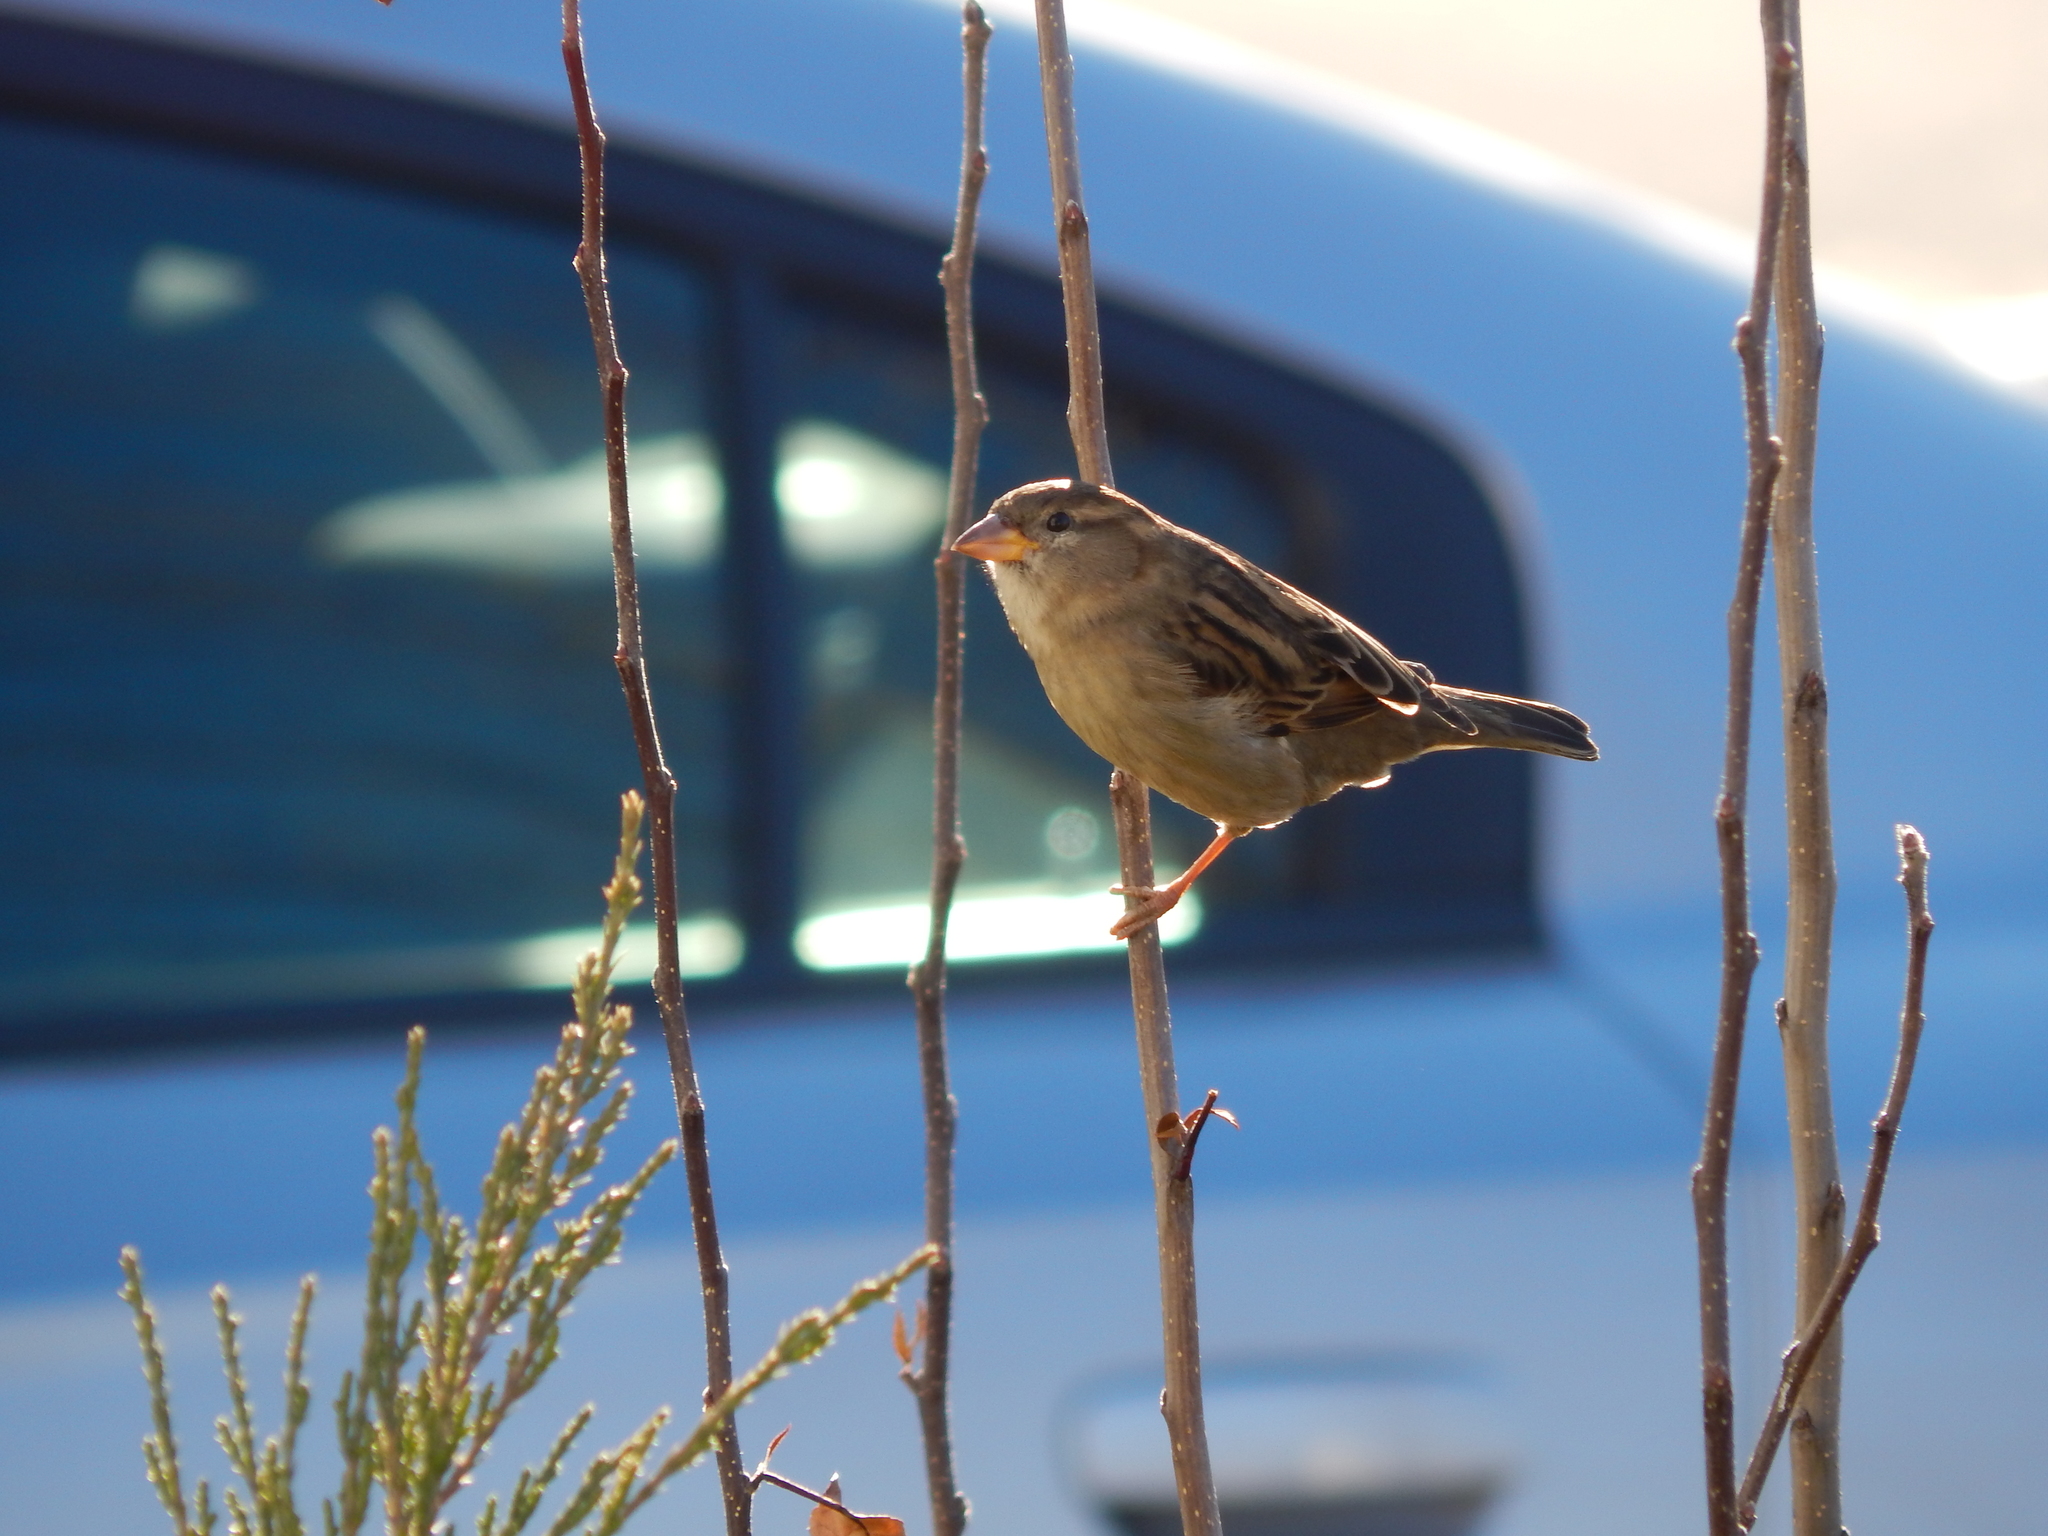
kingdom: Animalia
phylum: Chordata
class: Aves
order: Passeriformes
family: Passeridae
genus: Passer
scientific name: Passer domesticus
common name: House sparrow
